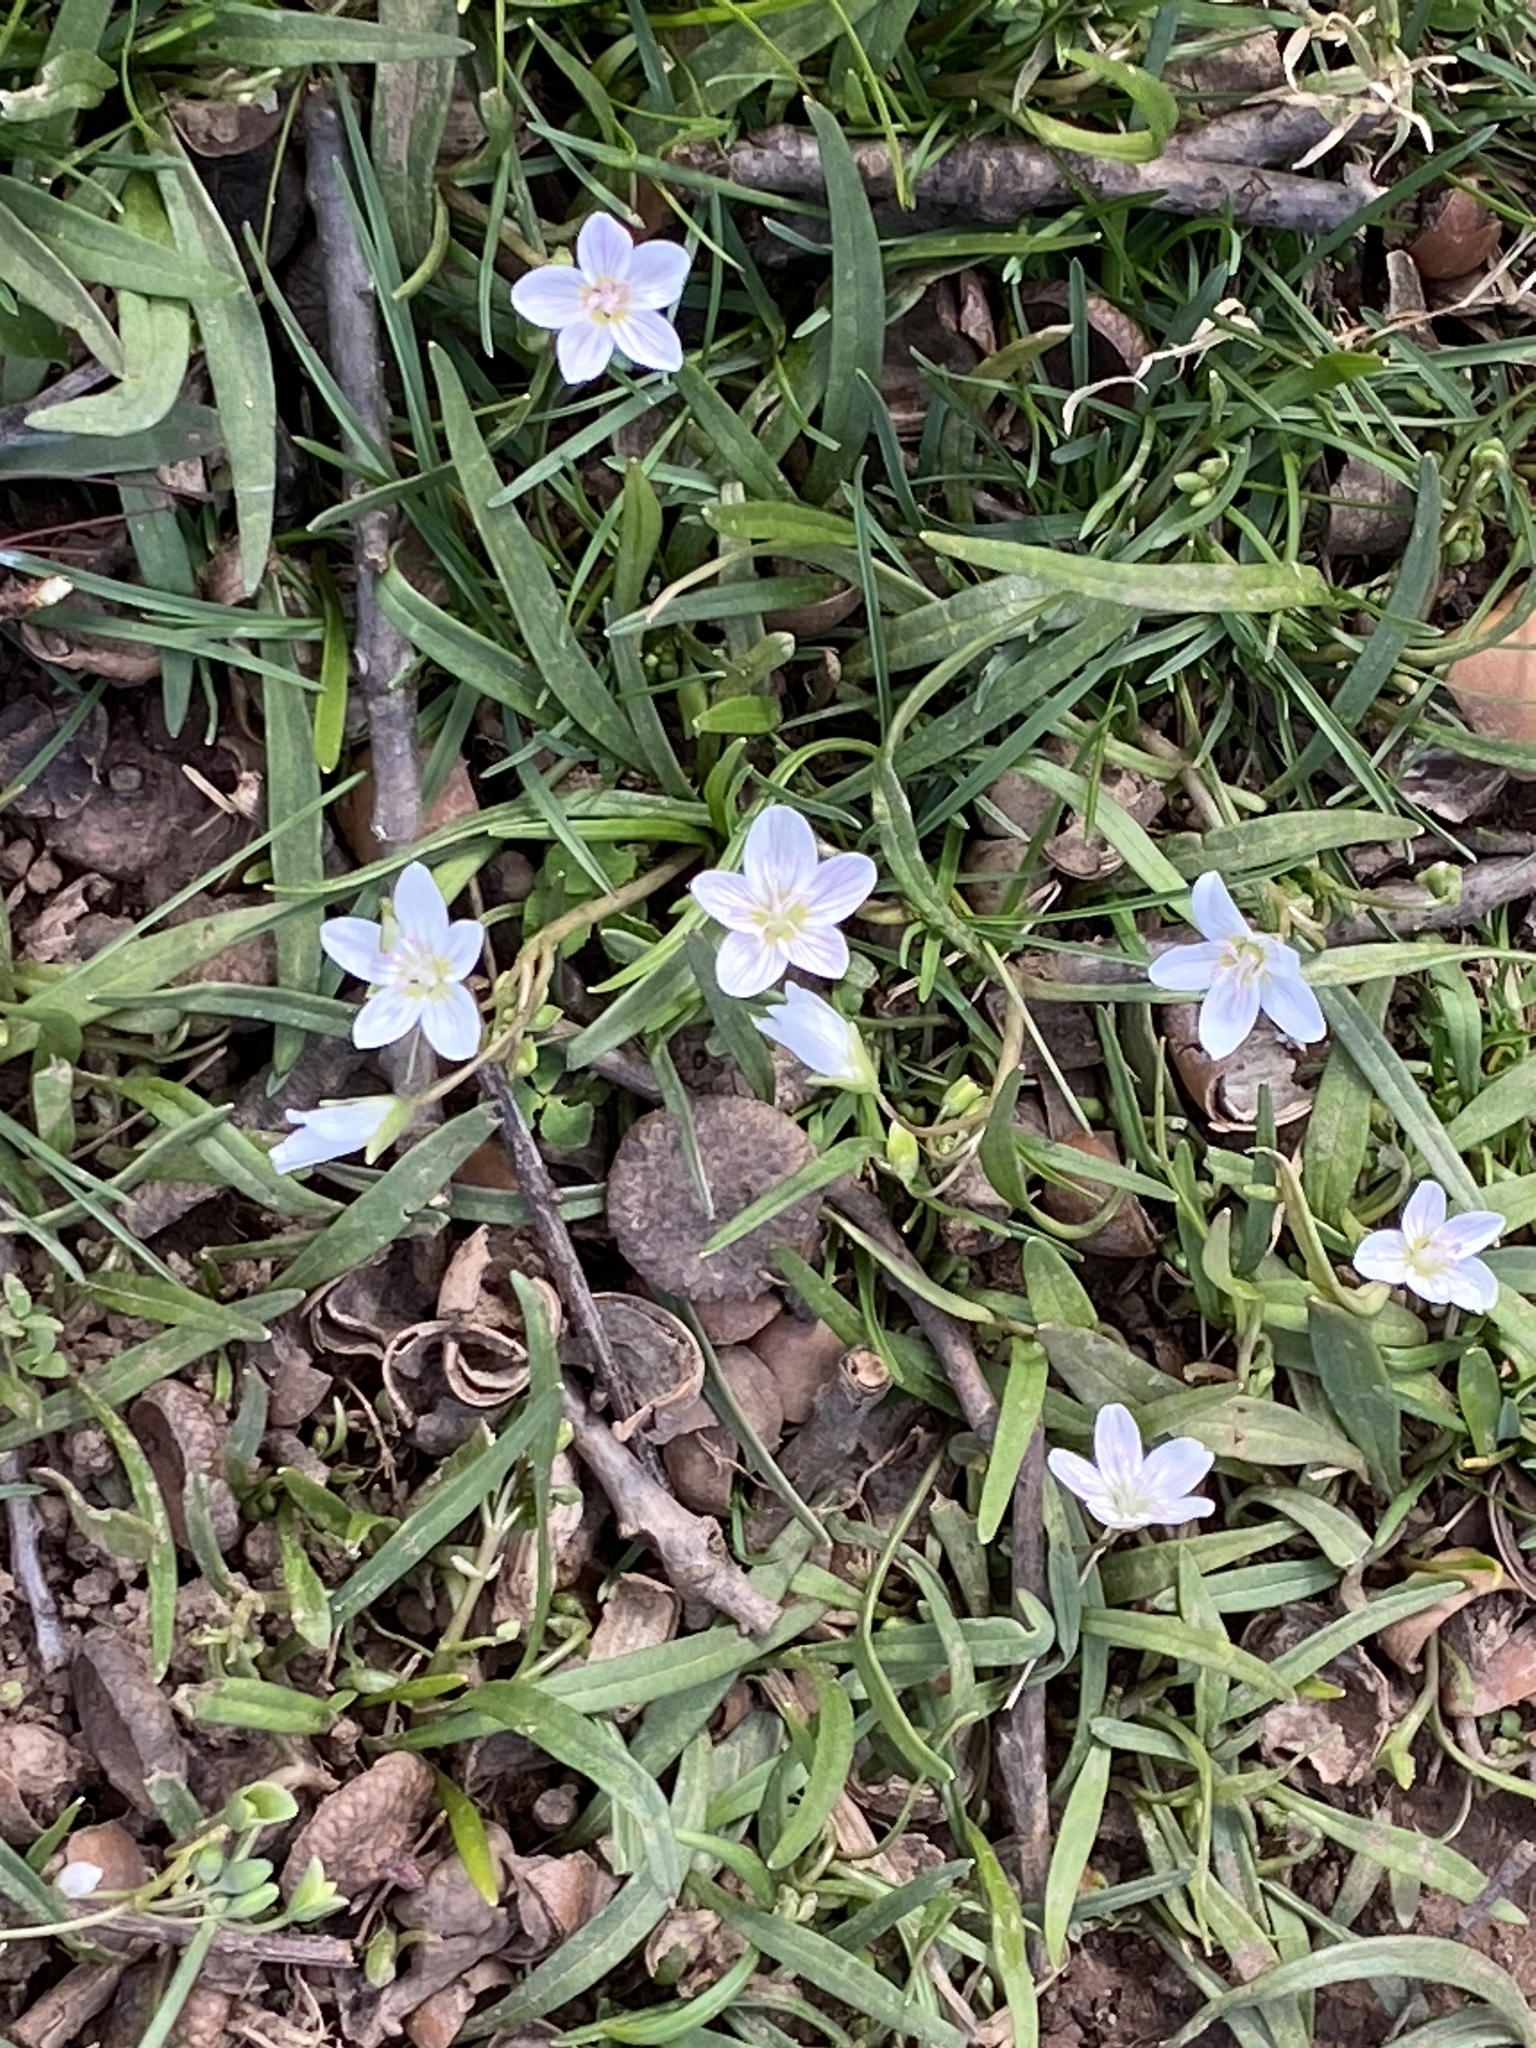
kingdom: Plantae
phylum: Tracheophyta
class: Magnoliopsida
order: Caryophyllales
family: Montiaceae
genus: Claytonia
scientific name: Claytonia virginica
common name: Virginia springbeauty
